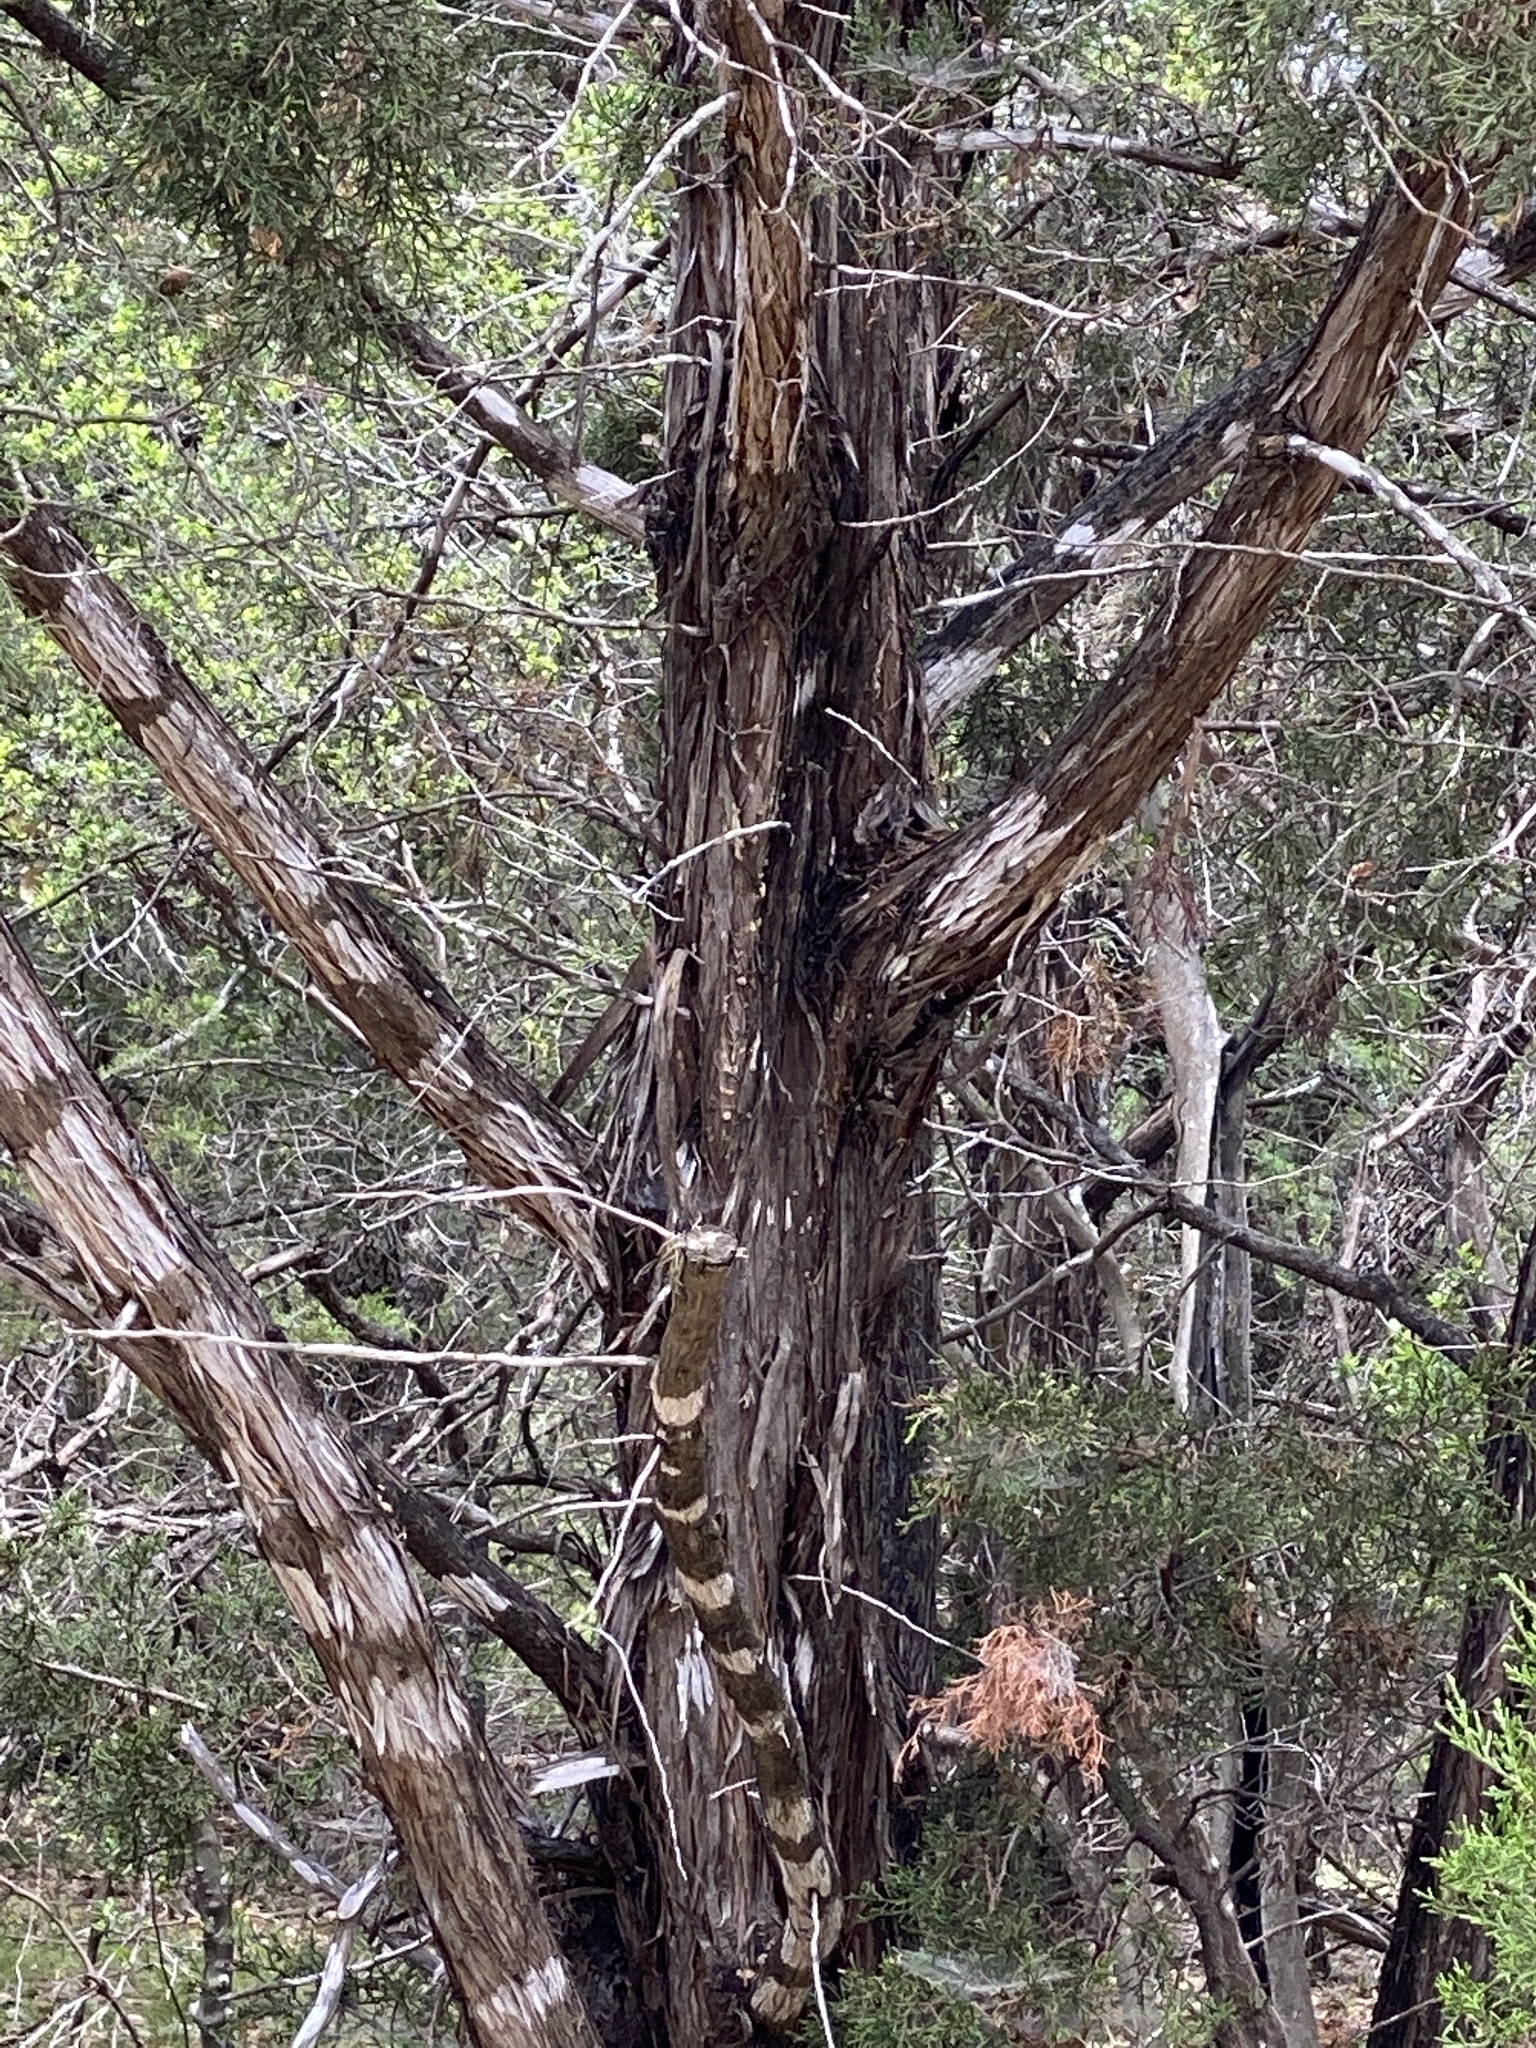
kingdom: Plantae
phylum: Tracheophyta
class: Pinopsida
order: Pinales
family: Cupressaceae
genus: Juniperus
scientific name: Juniperus ashei
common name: Mexican juniper
